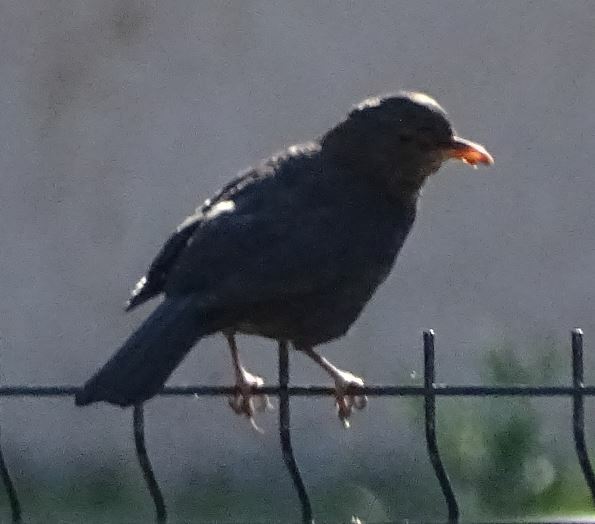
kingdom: Animalia
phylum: Chordata
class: Aves
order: Passeriformes
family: Turdidae
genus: Turdus
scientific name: Turdus merula
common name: Common blackbird
